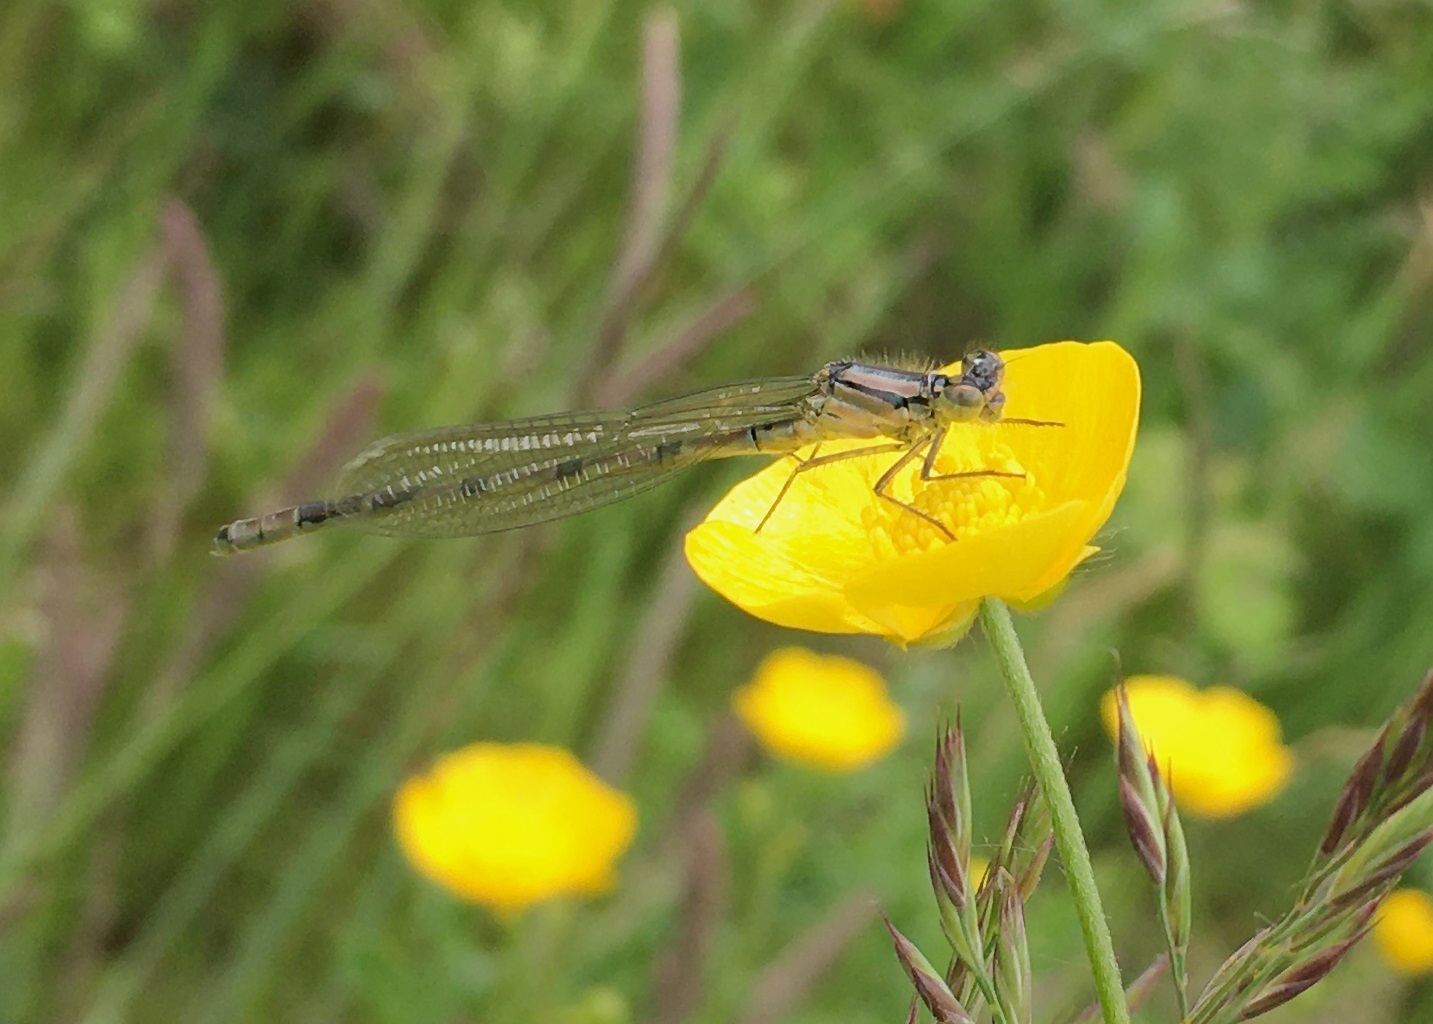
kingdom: Animalia
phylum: Arthropoda
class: Insecta
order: Odonata
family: Coenagrionidae
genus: Enallagma
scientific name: Enallagma cyathigerum
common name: Common blue damselfly
